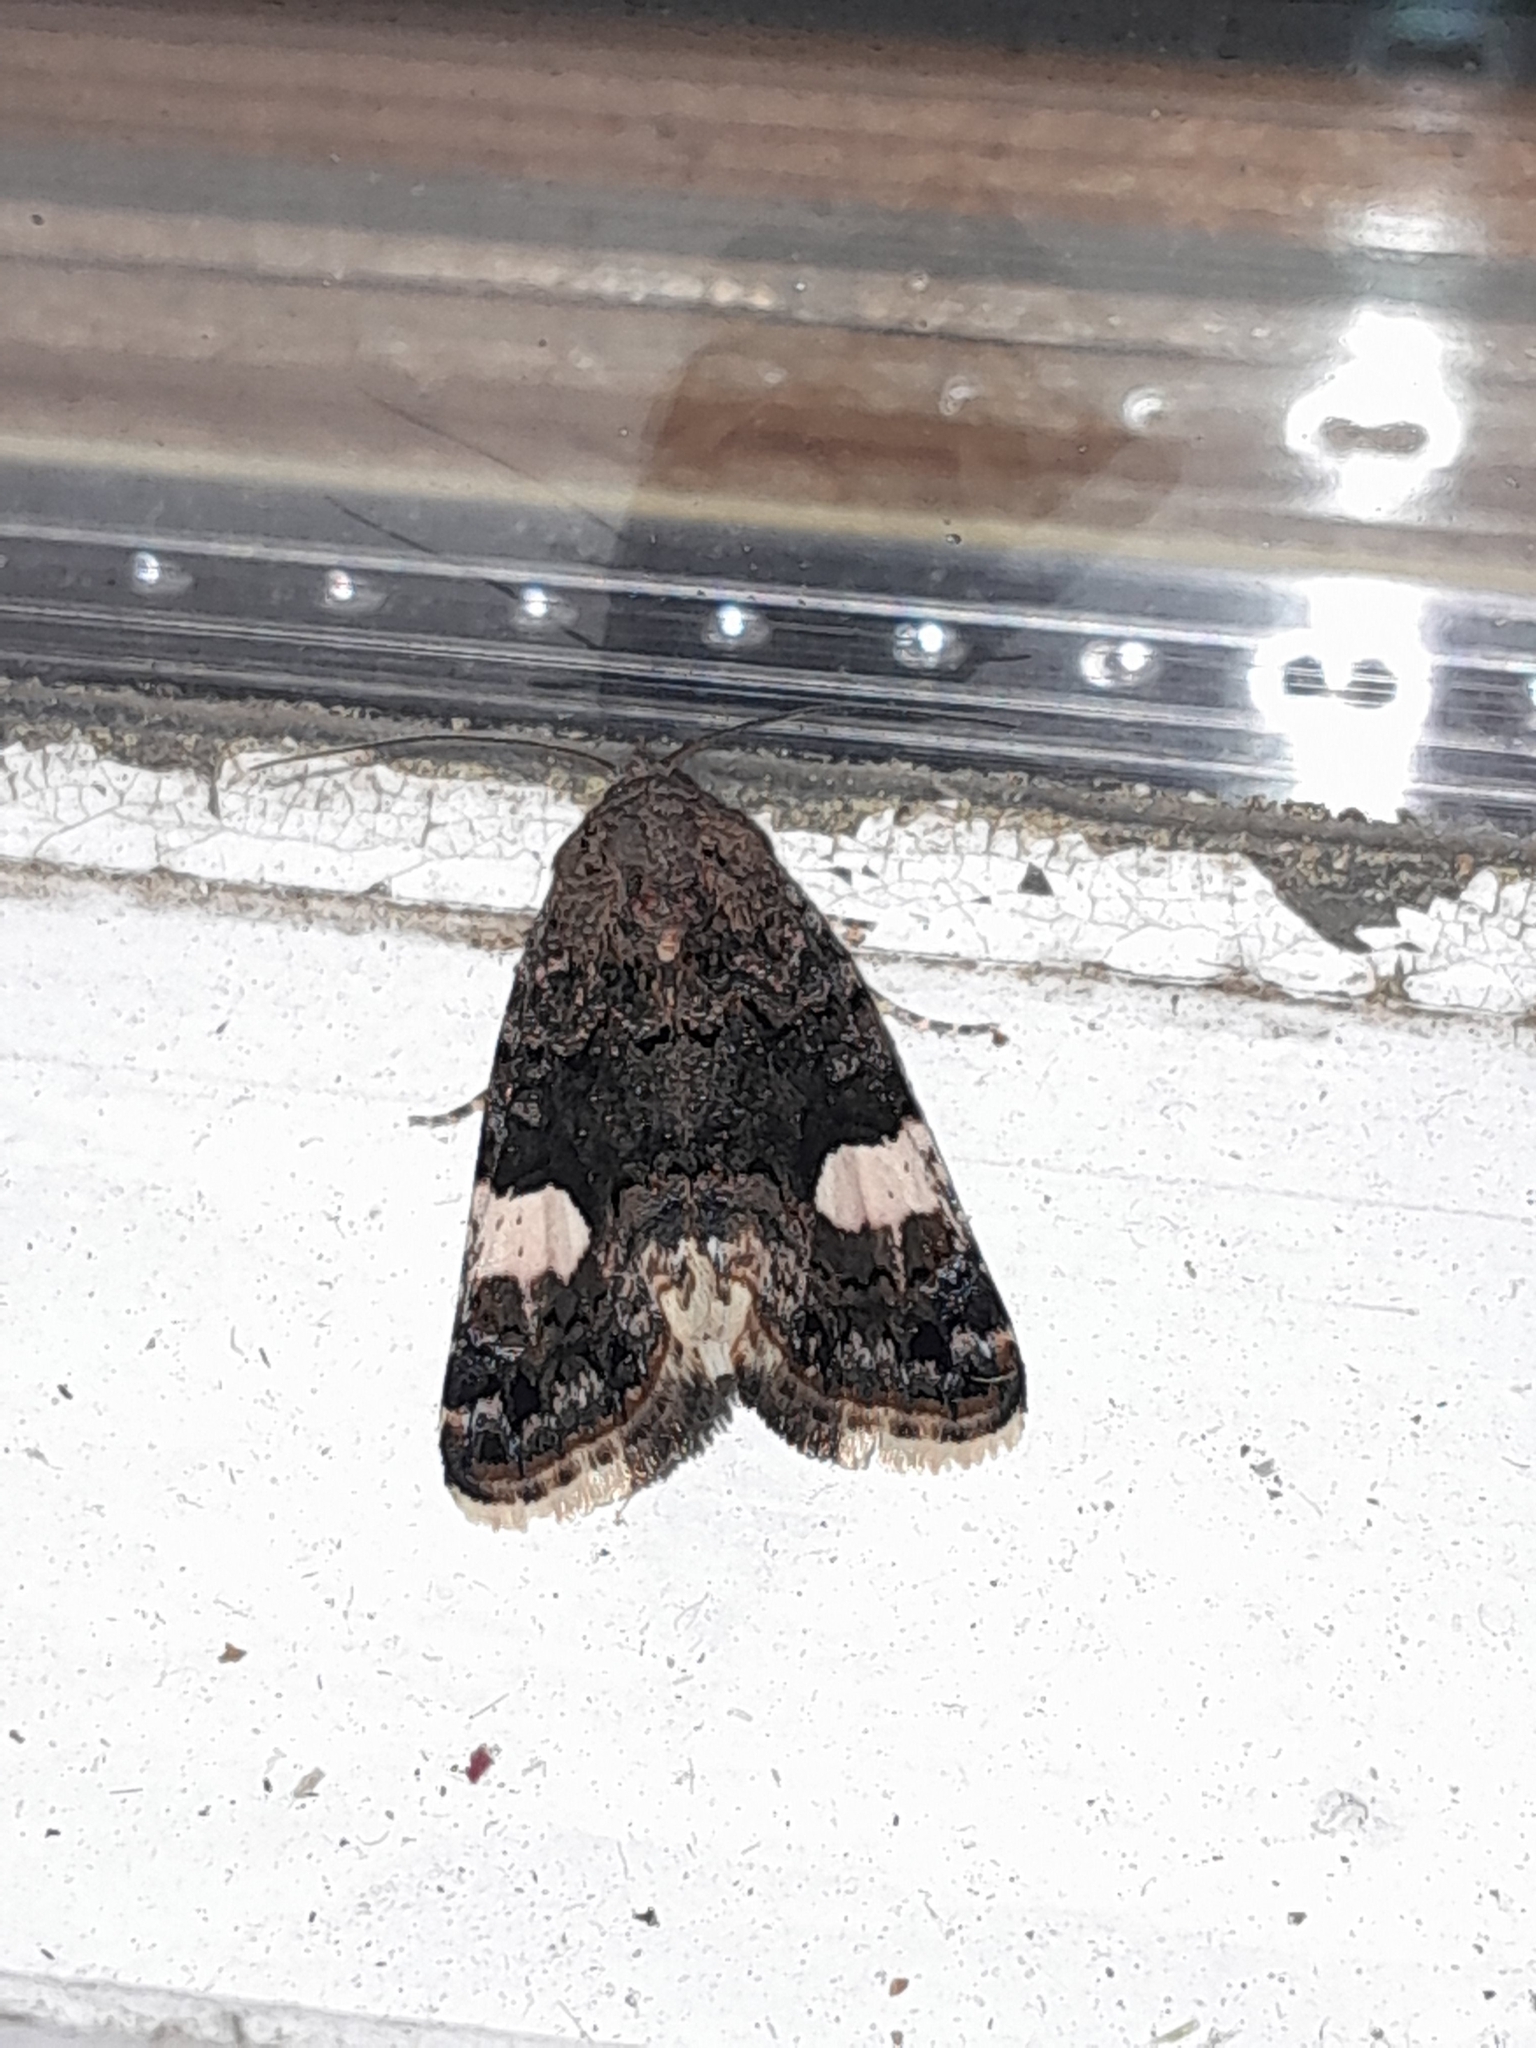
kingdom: Animalia
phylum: Arthropoda
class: Insecta
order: Lepidoptera
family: Erebidae
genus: Tyta
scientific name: Tyta luctuosa
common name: Four-spotted
